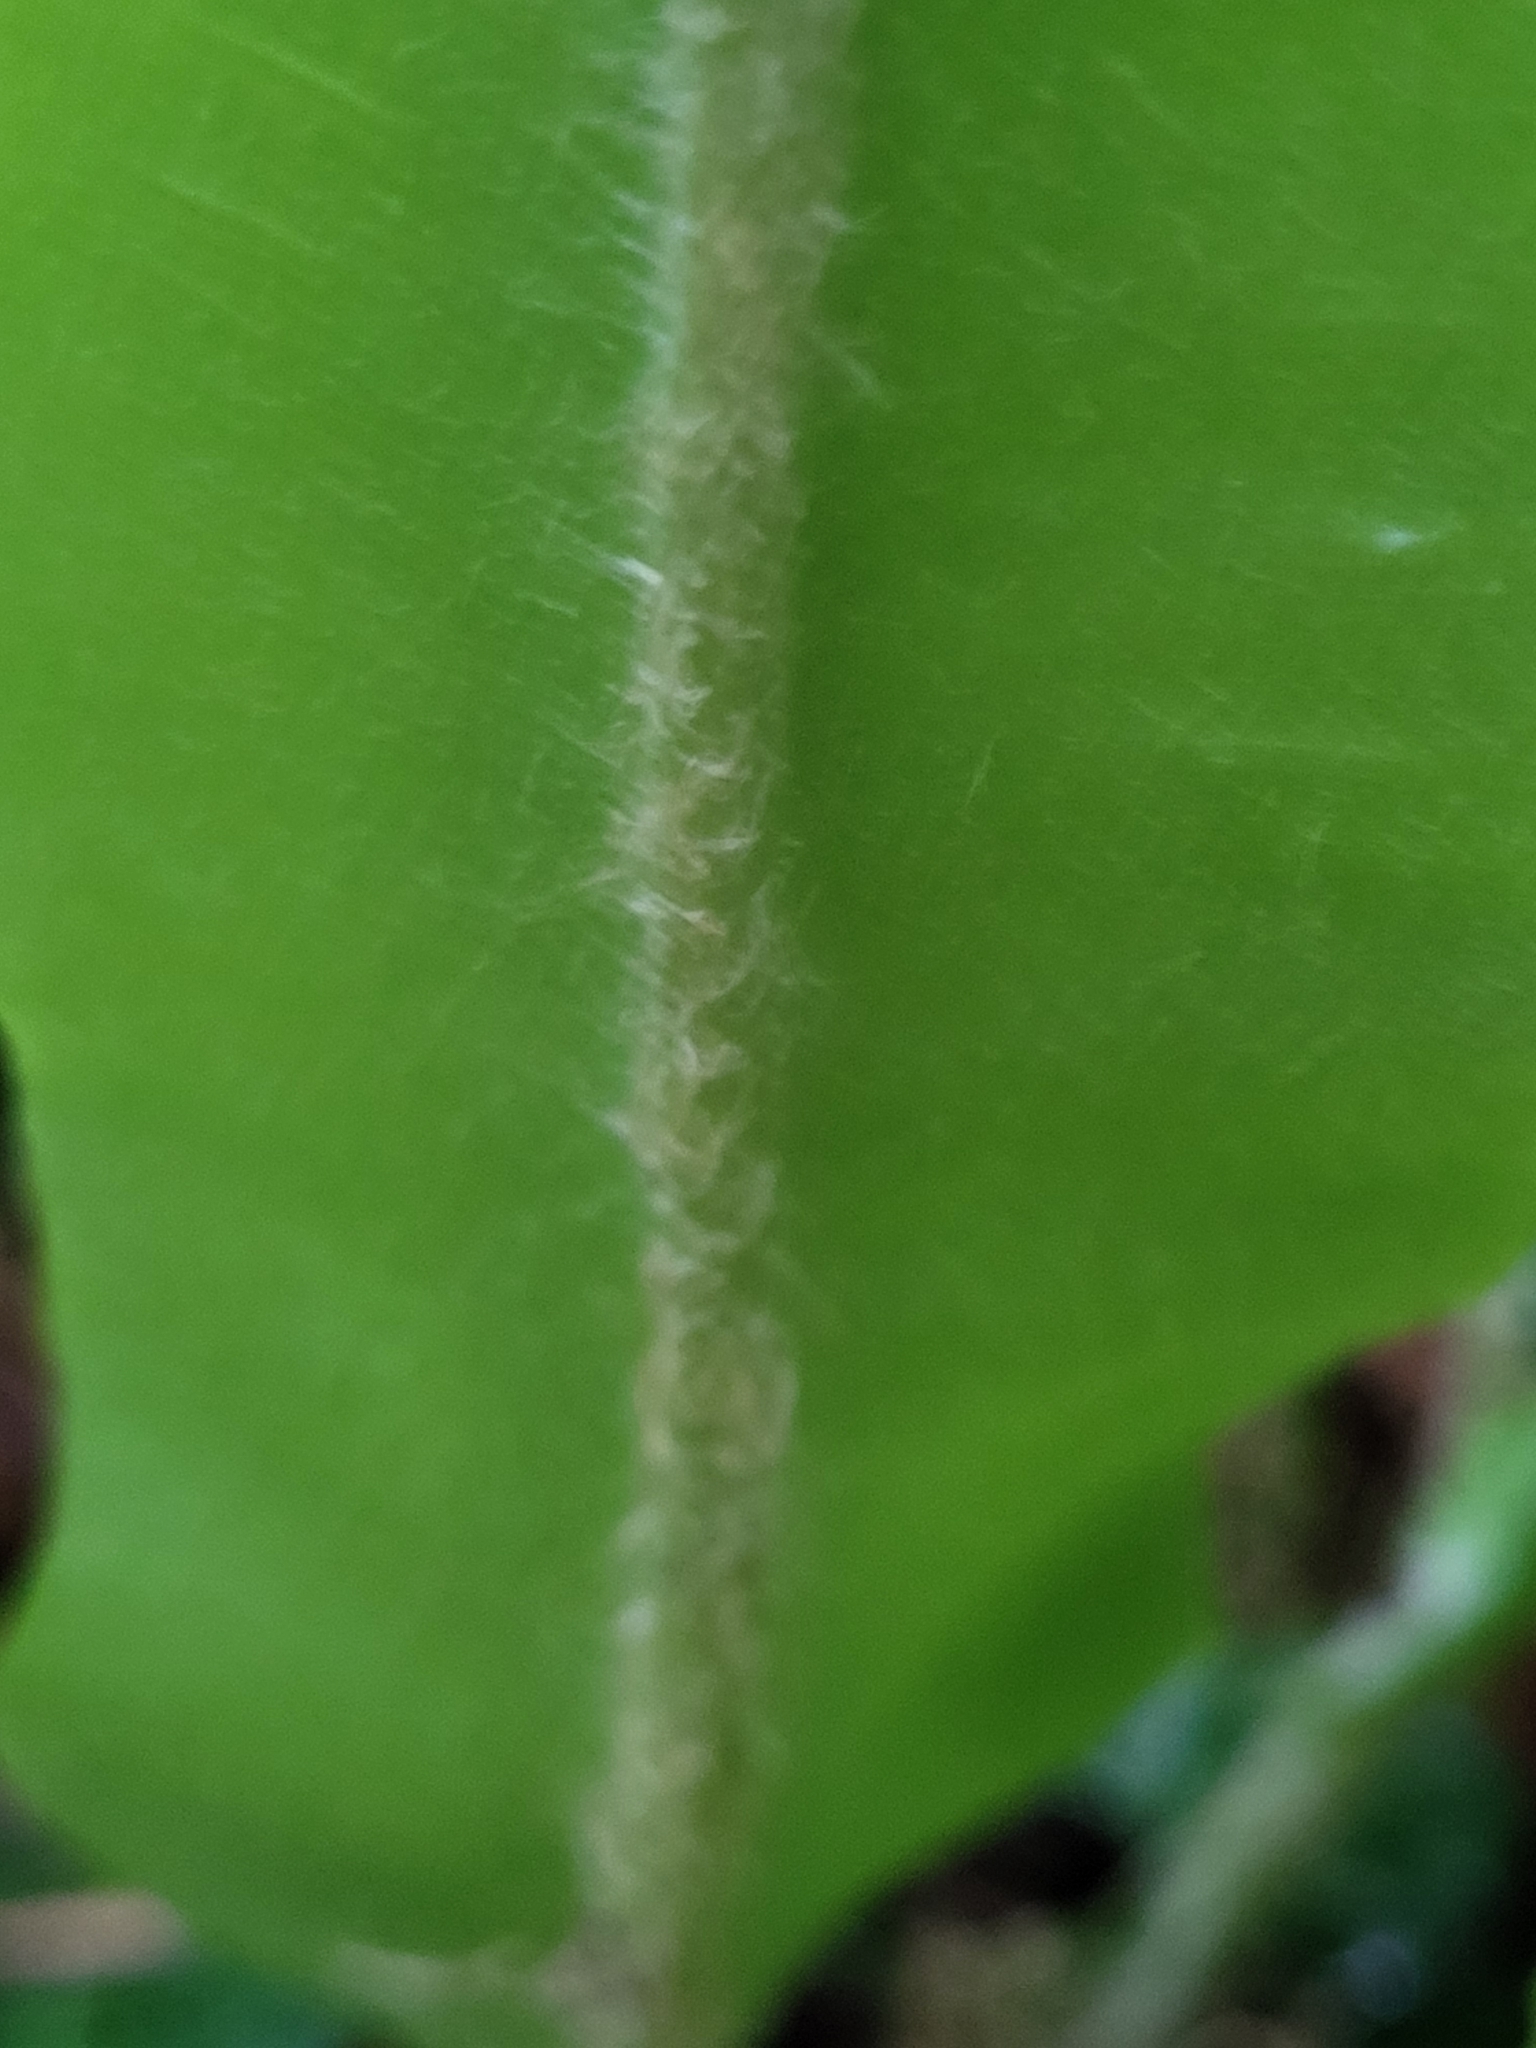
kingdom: Plantae
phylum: Tracheophyta
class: Polypodiopsida
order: Polypodiales
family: Aspleniaceae
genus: Asplenium
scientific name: Asplenium scolopendrium
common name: Hart's-tongue fern
